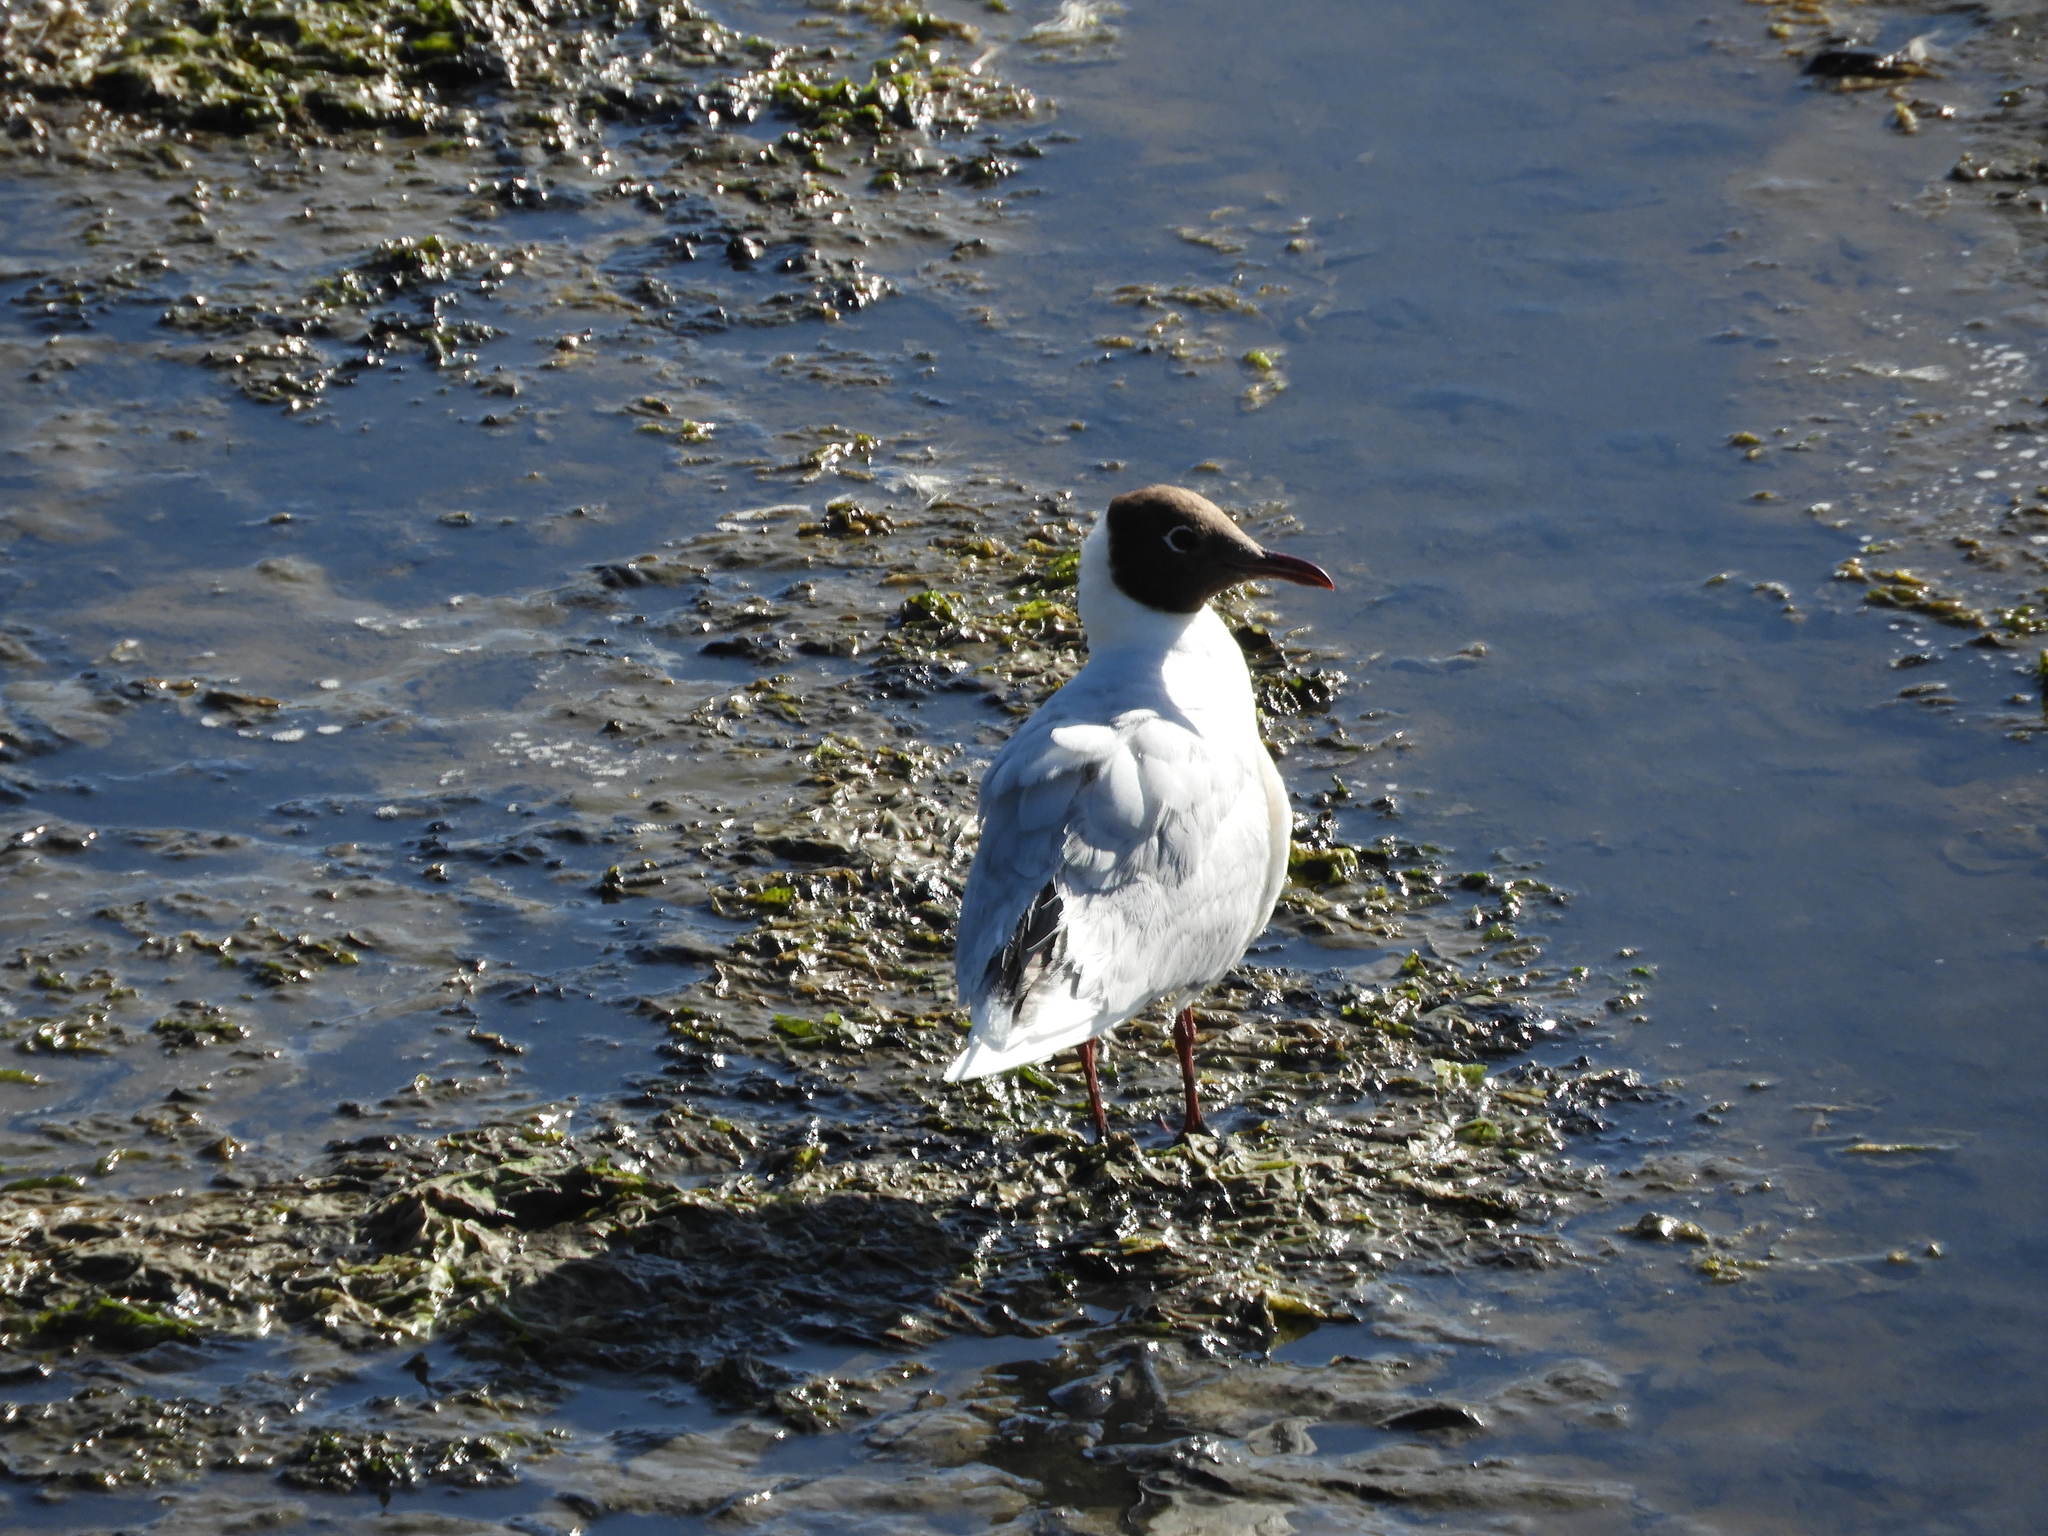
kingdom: Animalia
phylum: Chordata
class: Aves
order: Charadriiformes
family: Laridae
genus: Chroicocephalus
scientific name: Chroicocephalus maculipennis
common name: Brown-hooded gull
